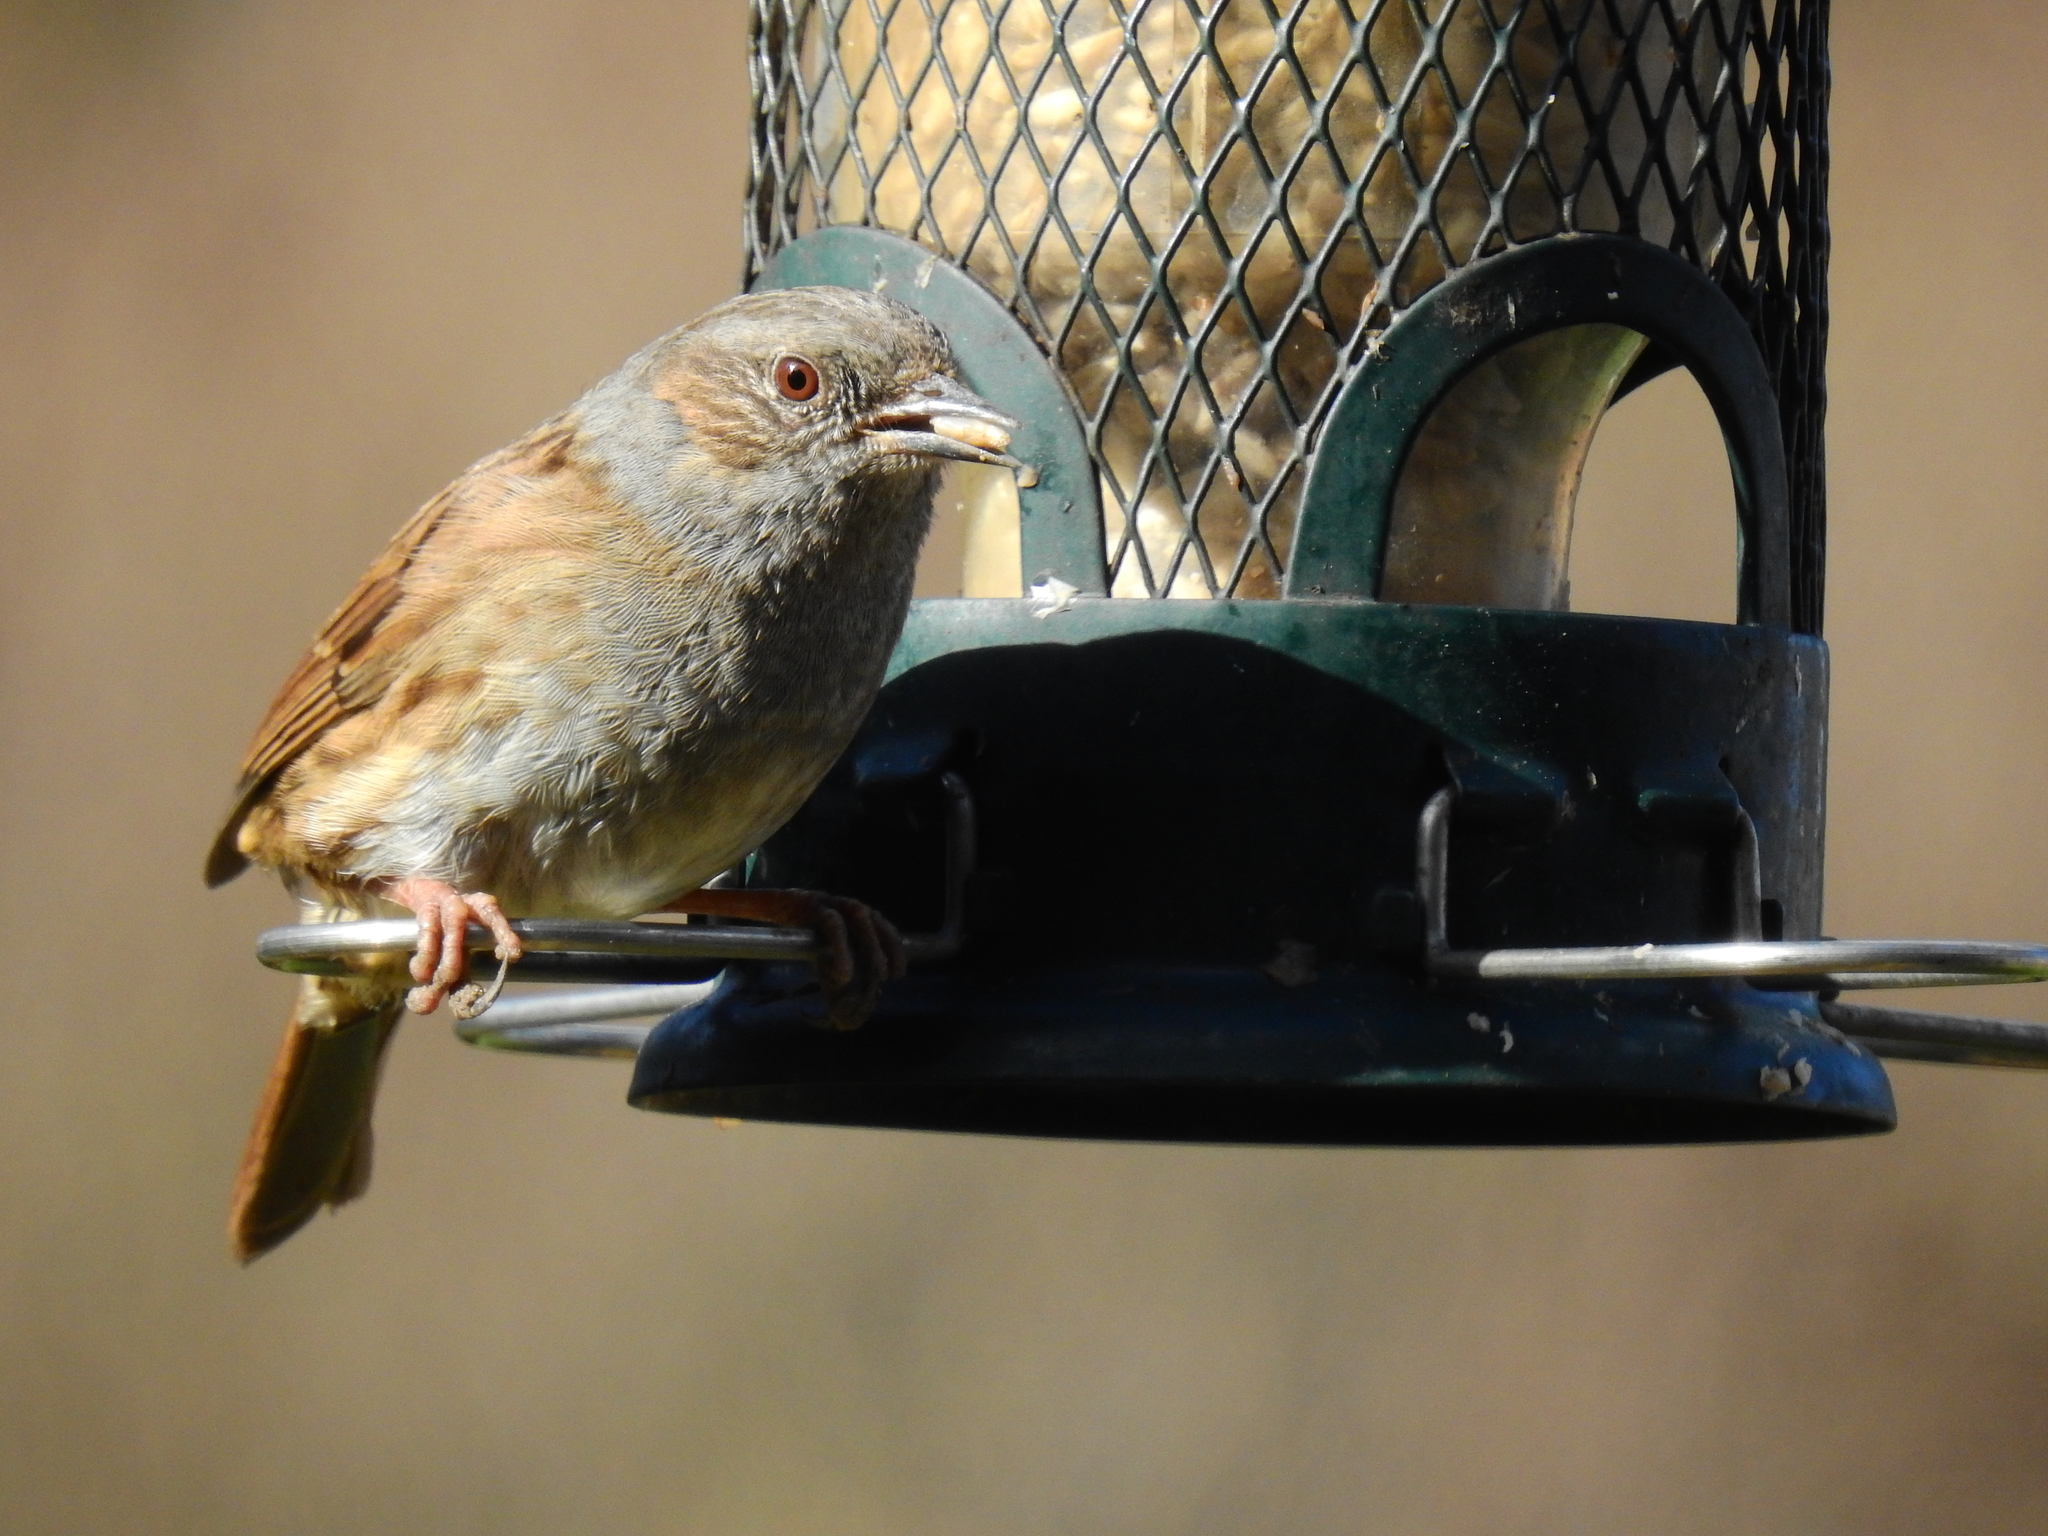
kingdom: Animalia
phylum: Chordata
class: Aves
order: Passeriformes
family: Prunellidae
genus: Prunella
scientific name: Prunella modularis
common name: Dunnock
